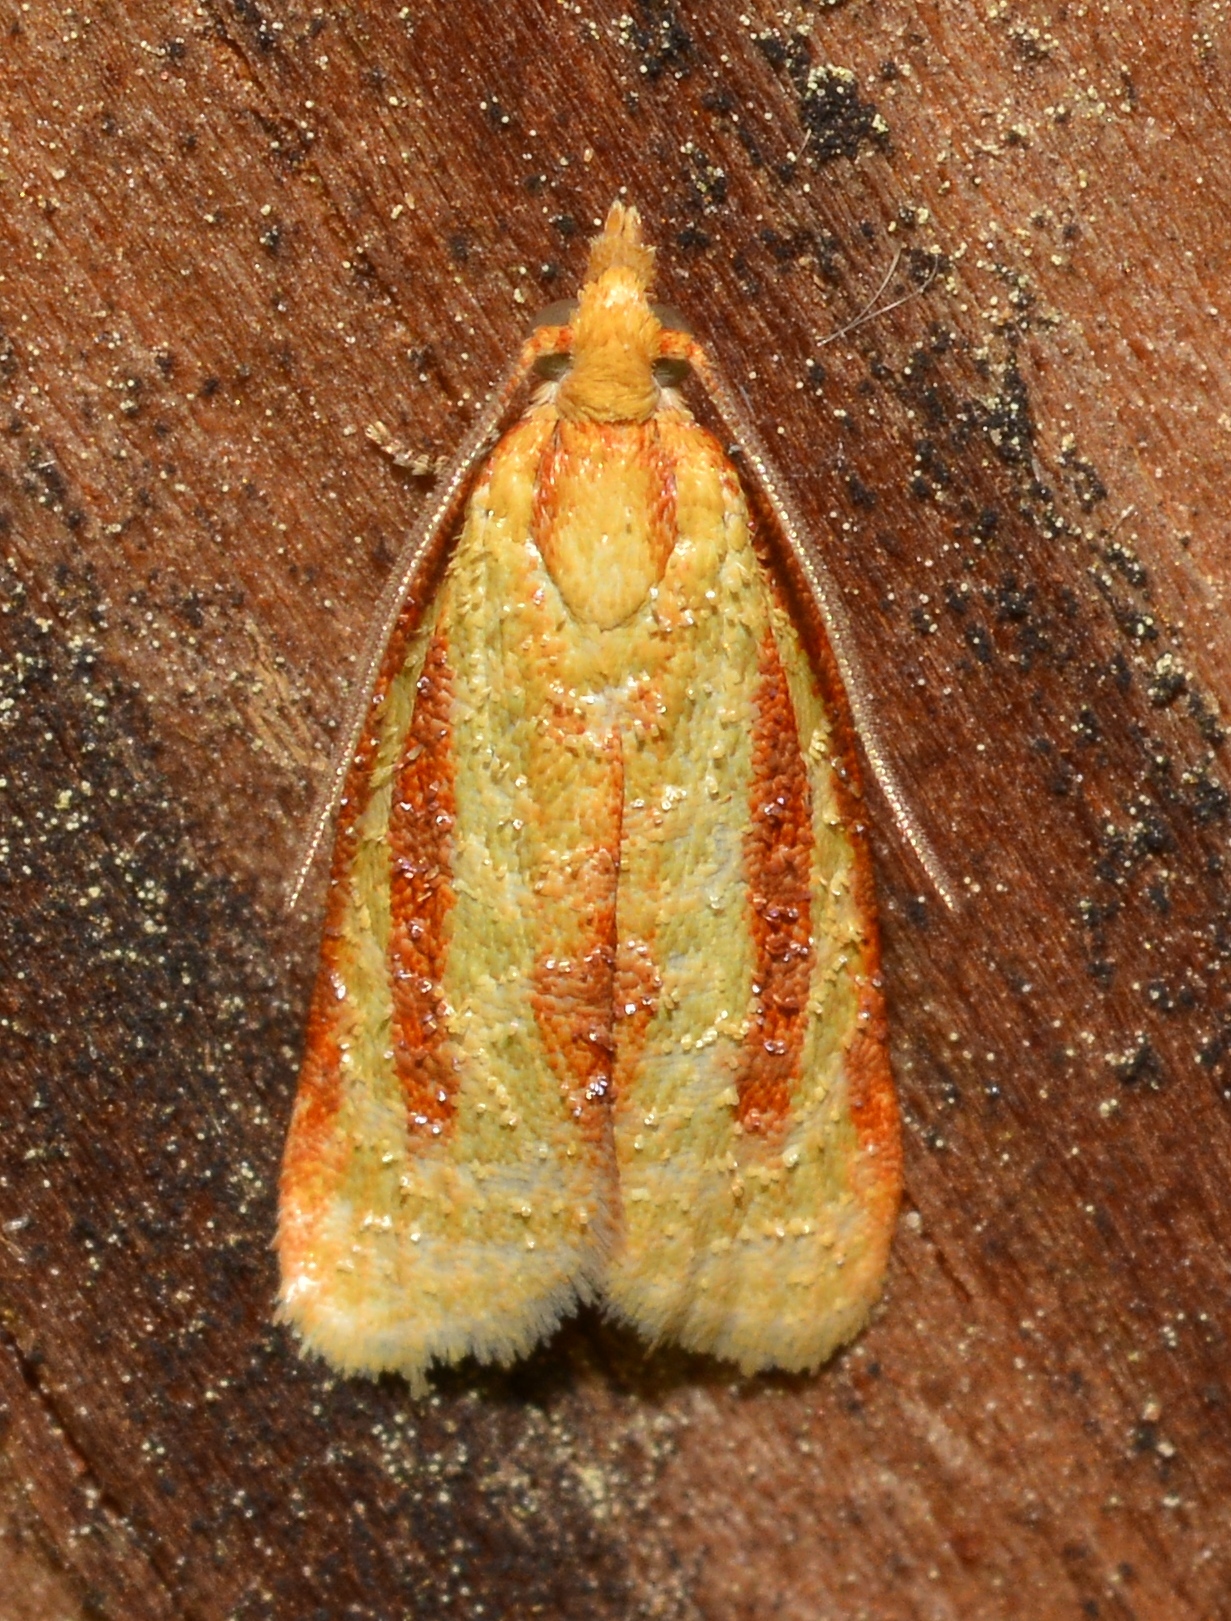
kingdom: Animalia
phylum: Arthropoda
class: Insecta
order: Lepidoptera
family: Tortricidae
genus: Sparganothis
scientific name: Sparganothis tristriata
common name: Three-streaked sparganothis moth
